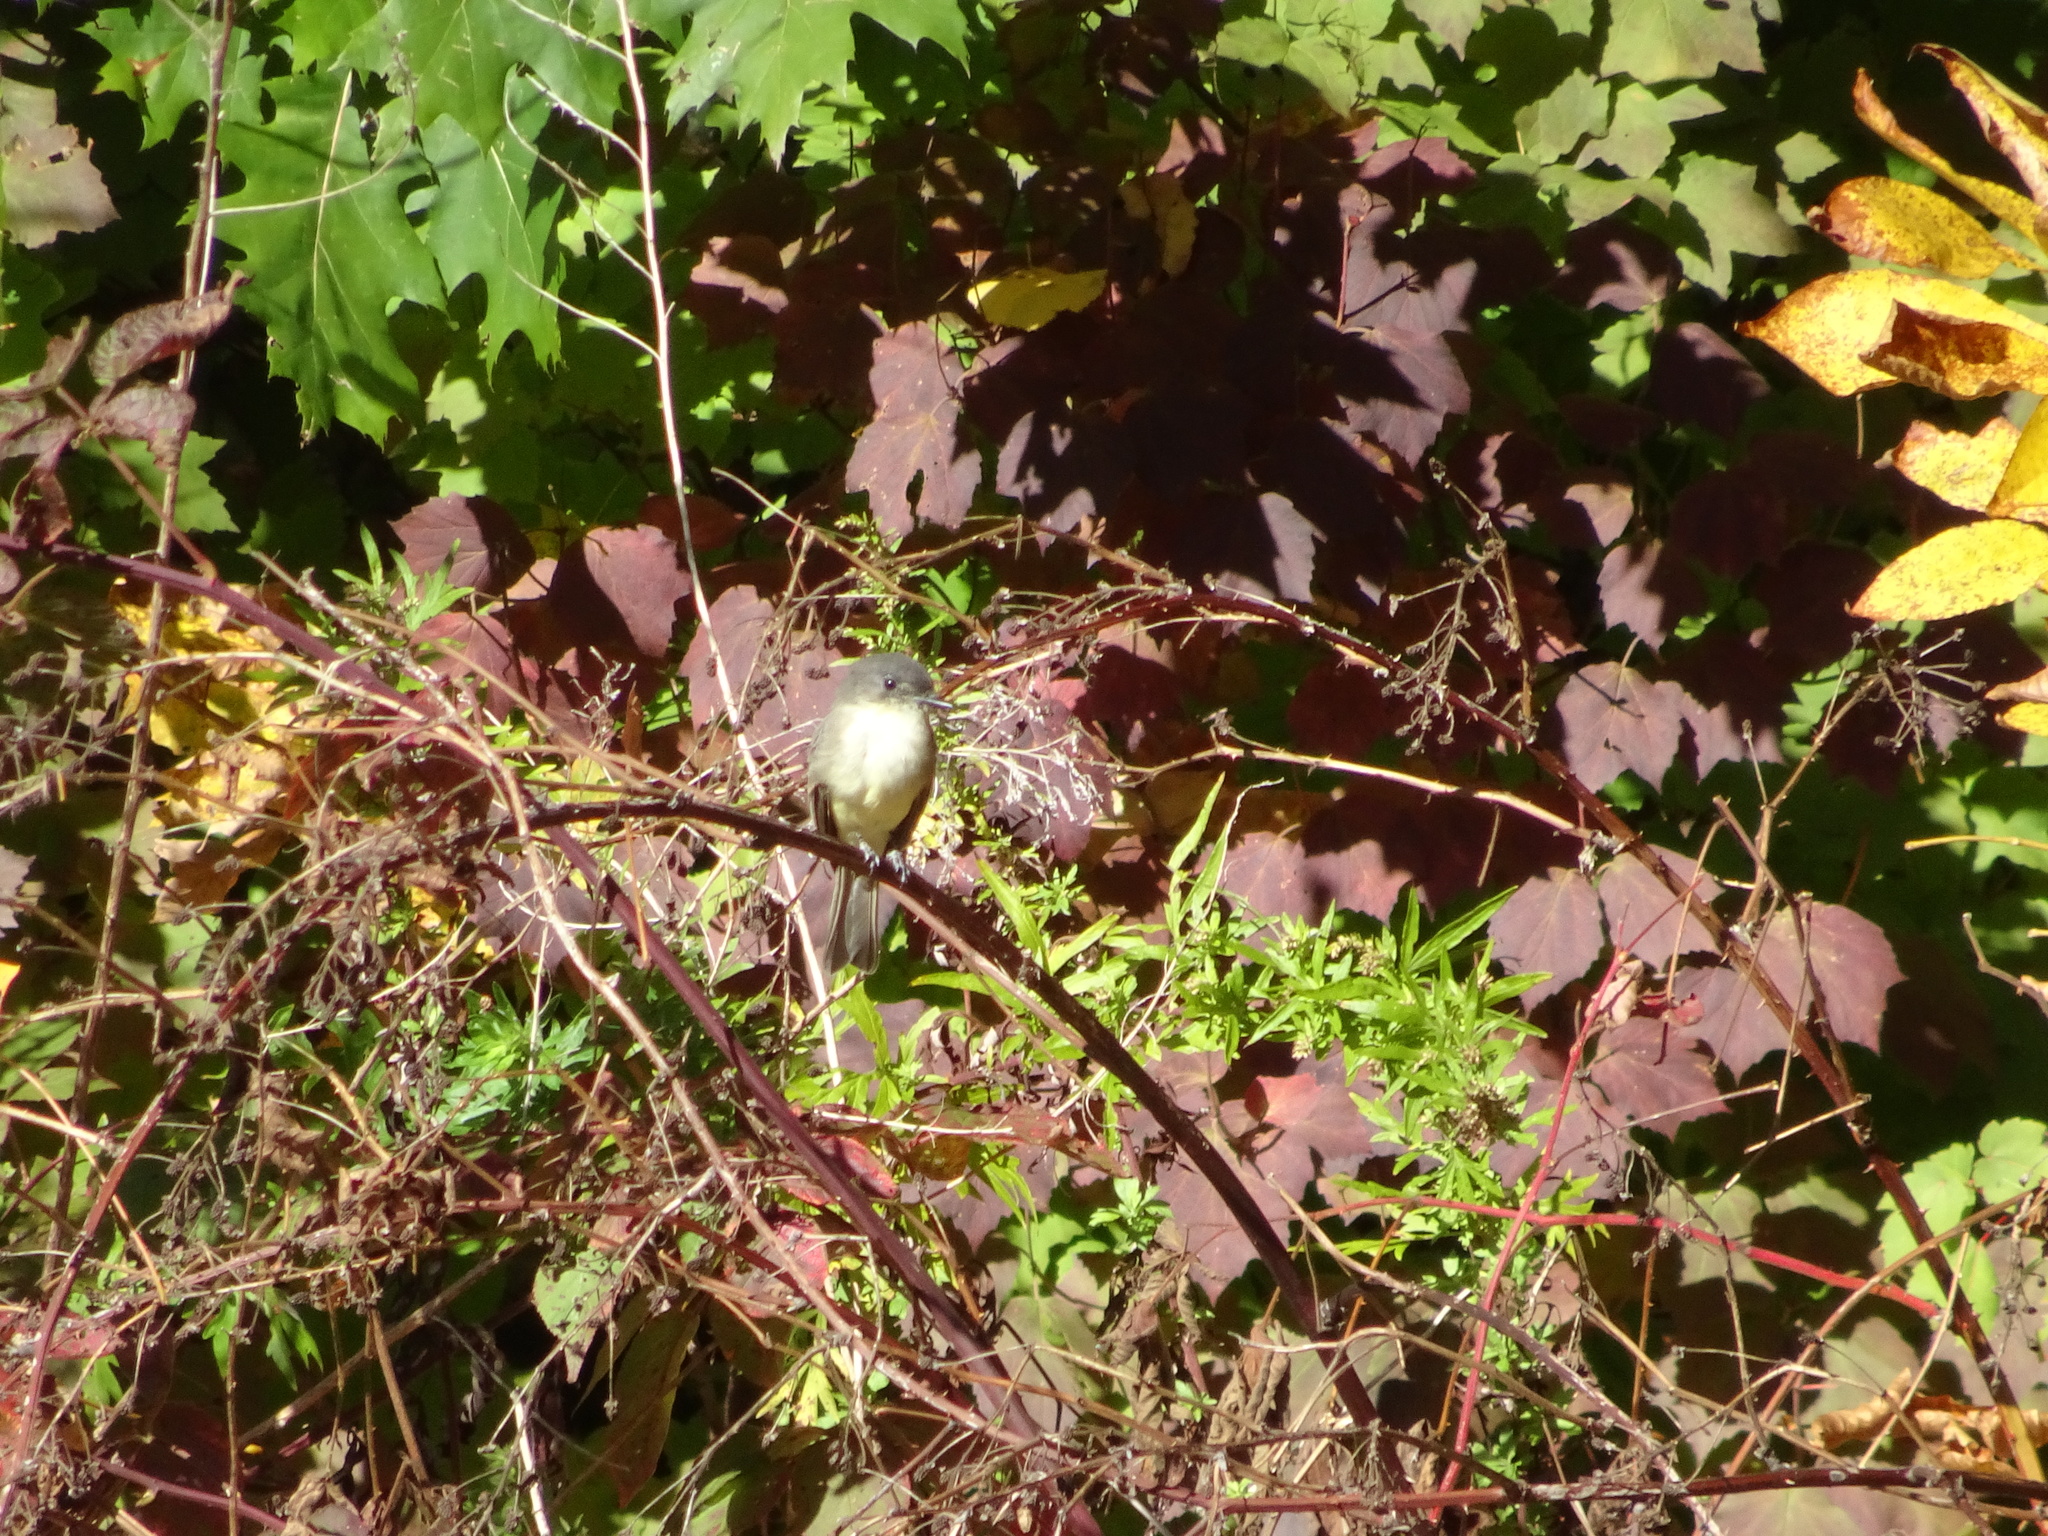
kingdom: Animalia
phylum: Chordata
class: Aves
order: Passeriformes
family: Tyrannidae
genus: Sayornis
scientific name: Sayornis phoebe
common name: Eastern phoebe
